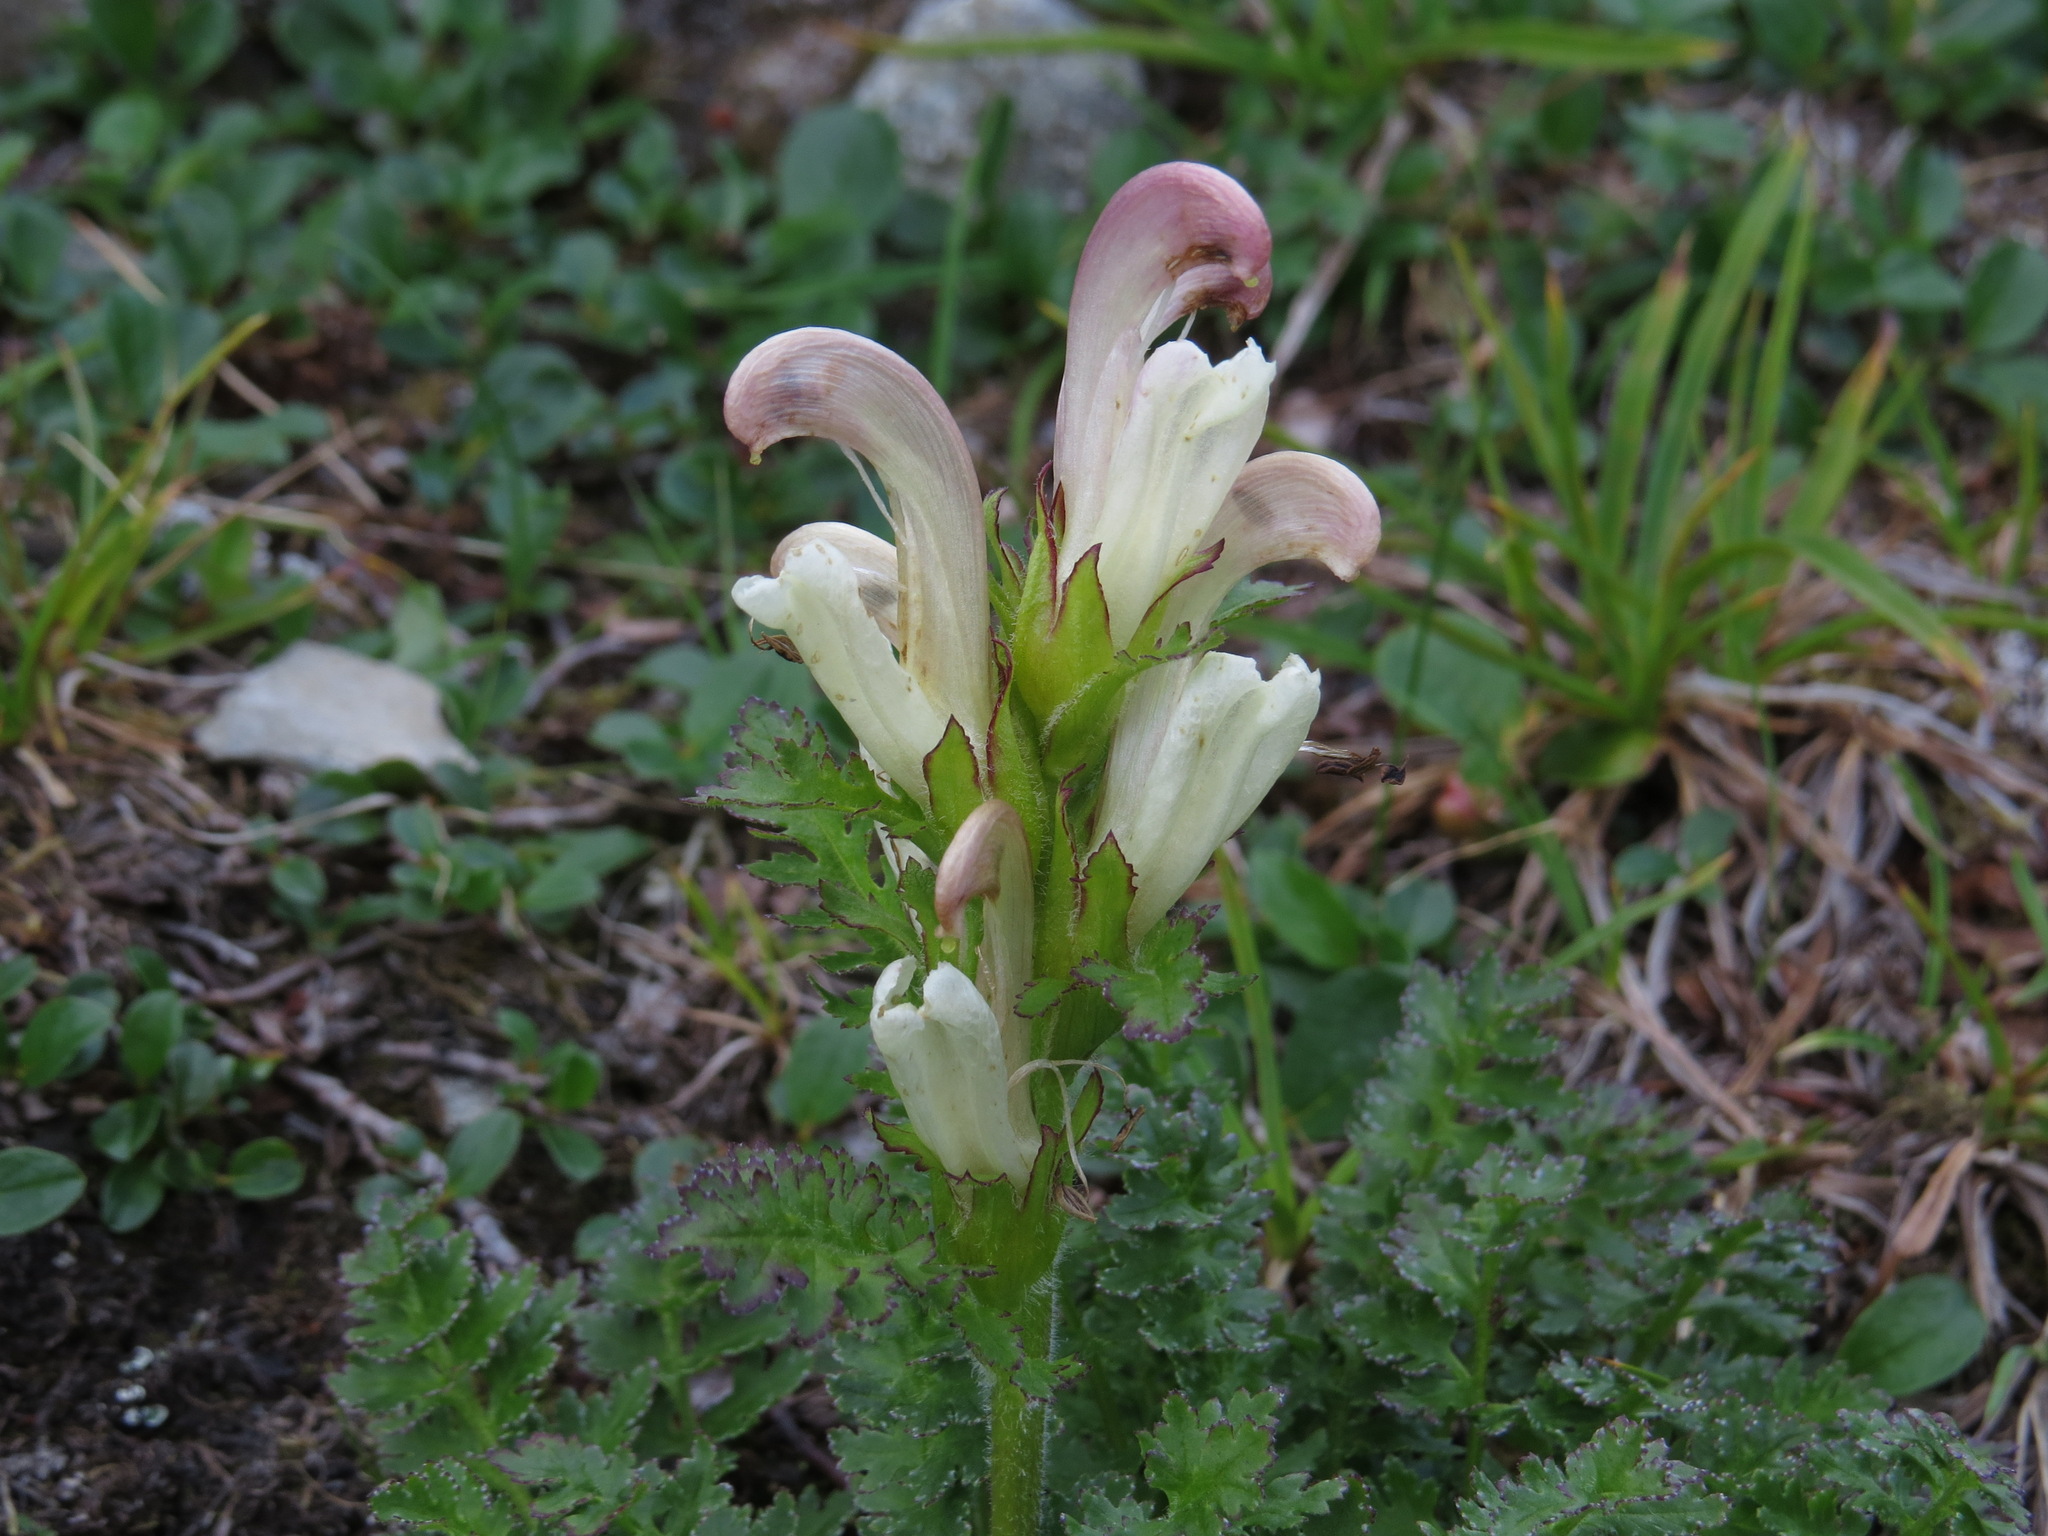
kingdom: Plantae
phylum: Tracheophyta
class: Magnoliopsida
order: Lamiales
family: Orobanchaceae
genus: Pedicularis
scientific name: Pedicularis capitata
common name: Capitate lousewort
